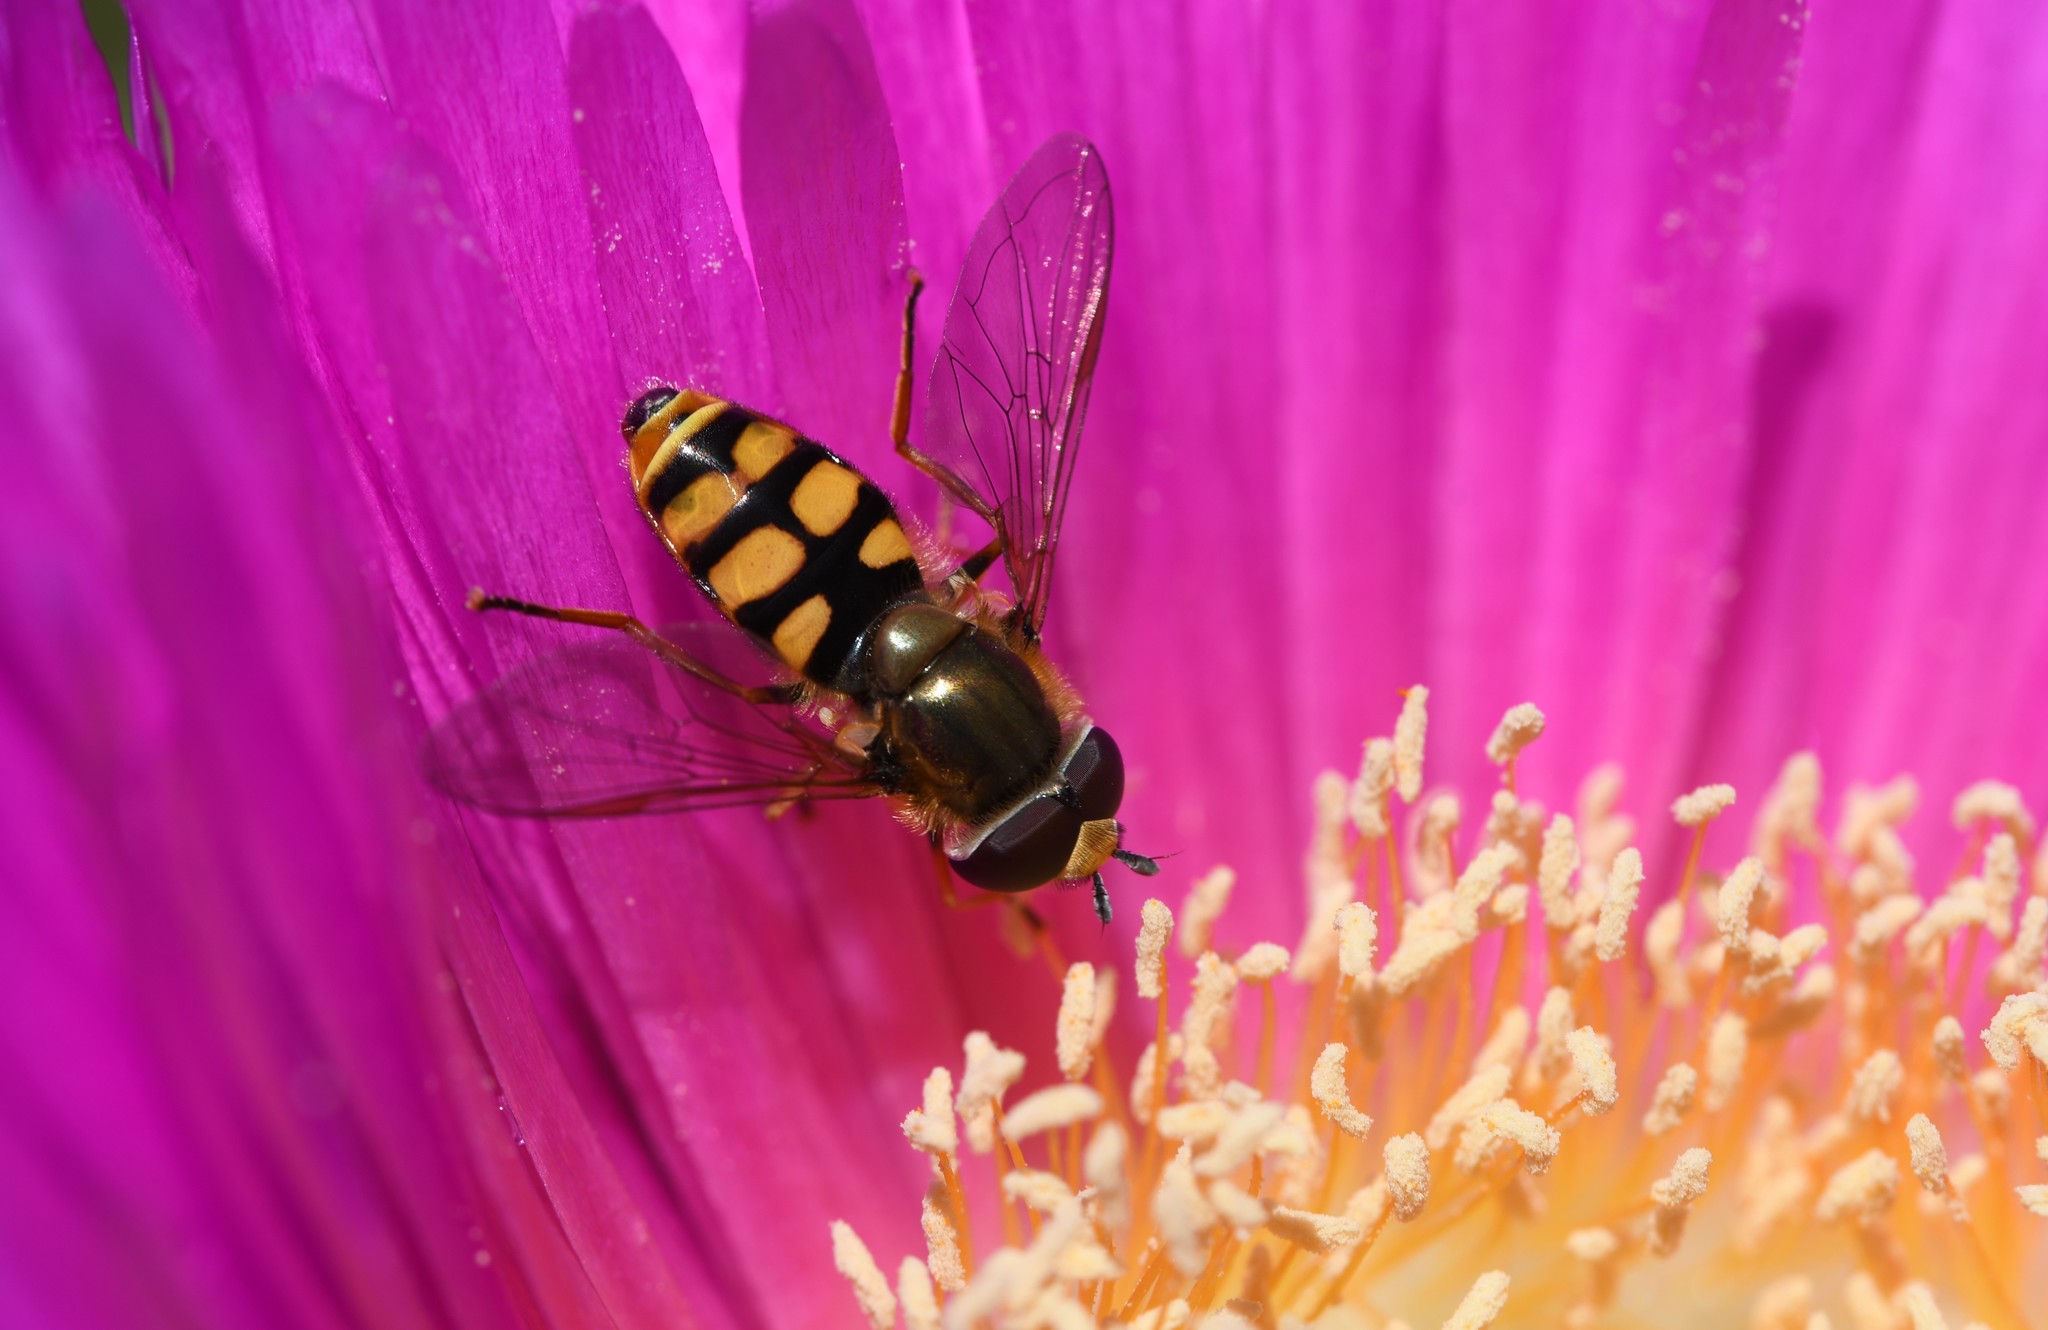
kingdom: Animalia
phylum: Arthropoda
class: Insecta
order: Diptera
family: Syrphidae
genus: Eupeodes
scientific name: Eupeodes corollae
